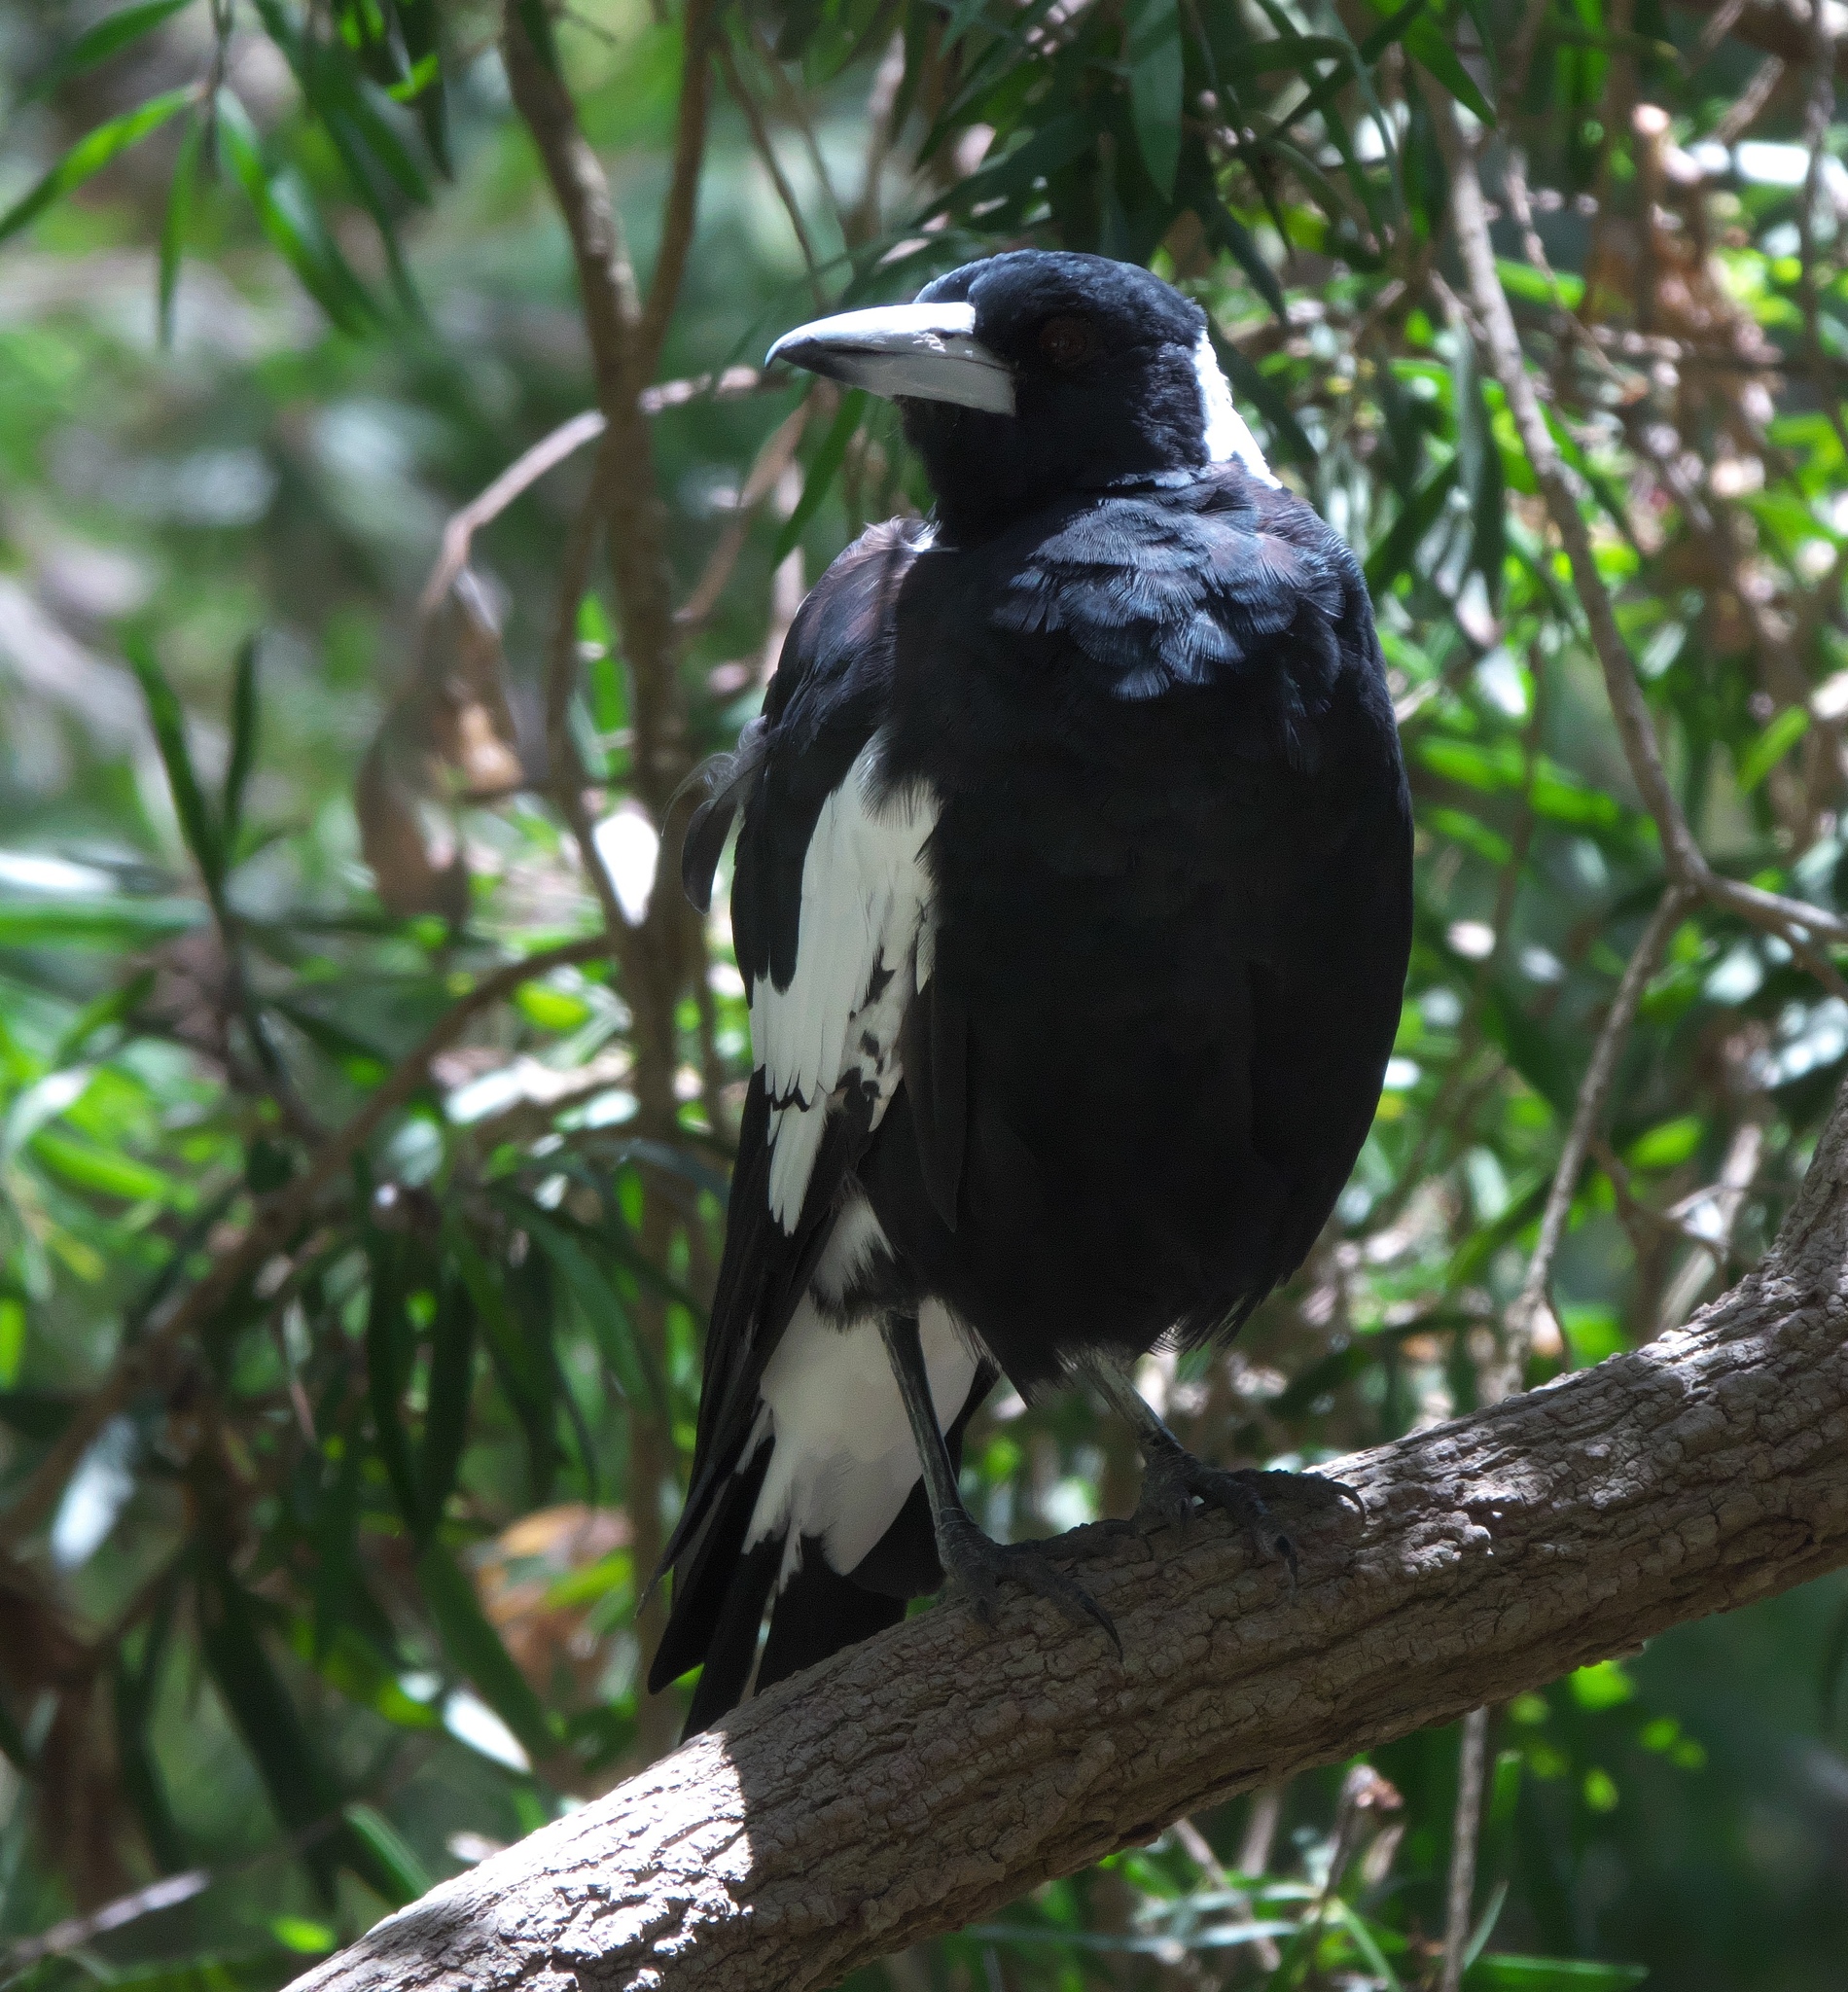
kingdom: Animalia
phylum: Chordata
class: Aves
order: Passeriformes
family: Cracticidae
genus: Gymnorhina
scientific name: Gymnorhina tibicen
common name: Australian magpie
